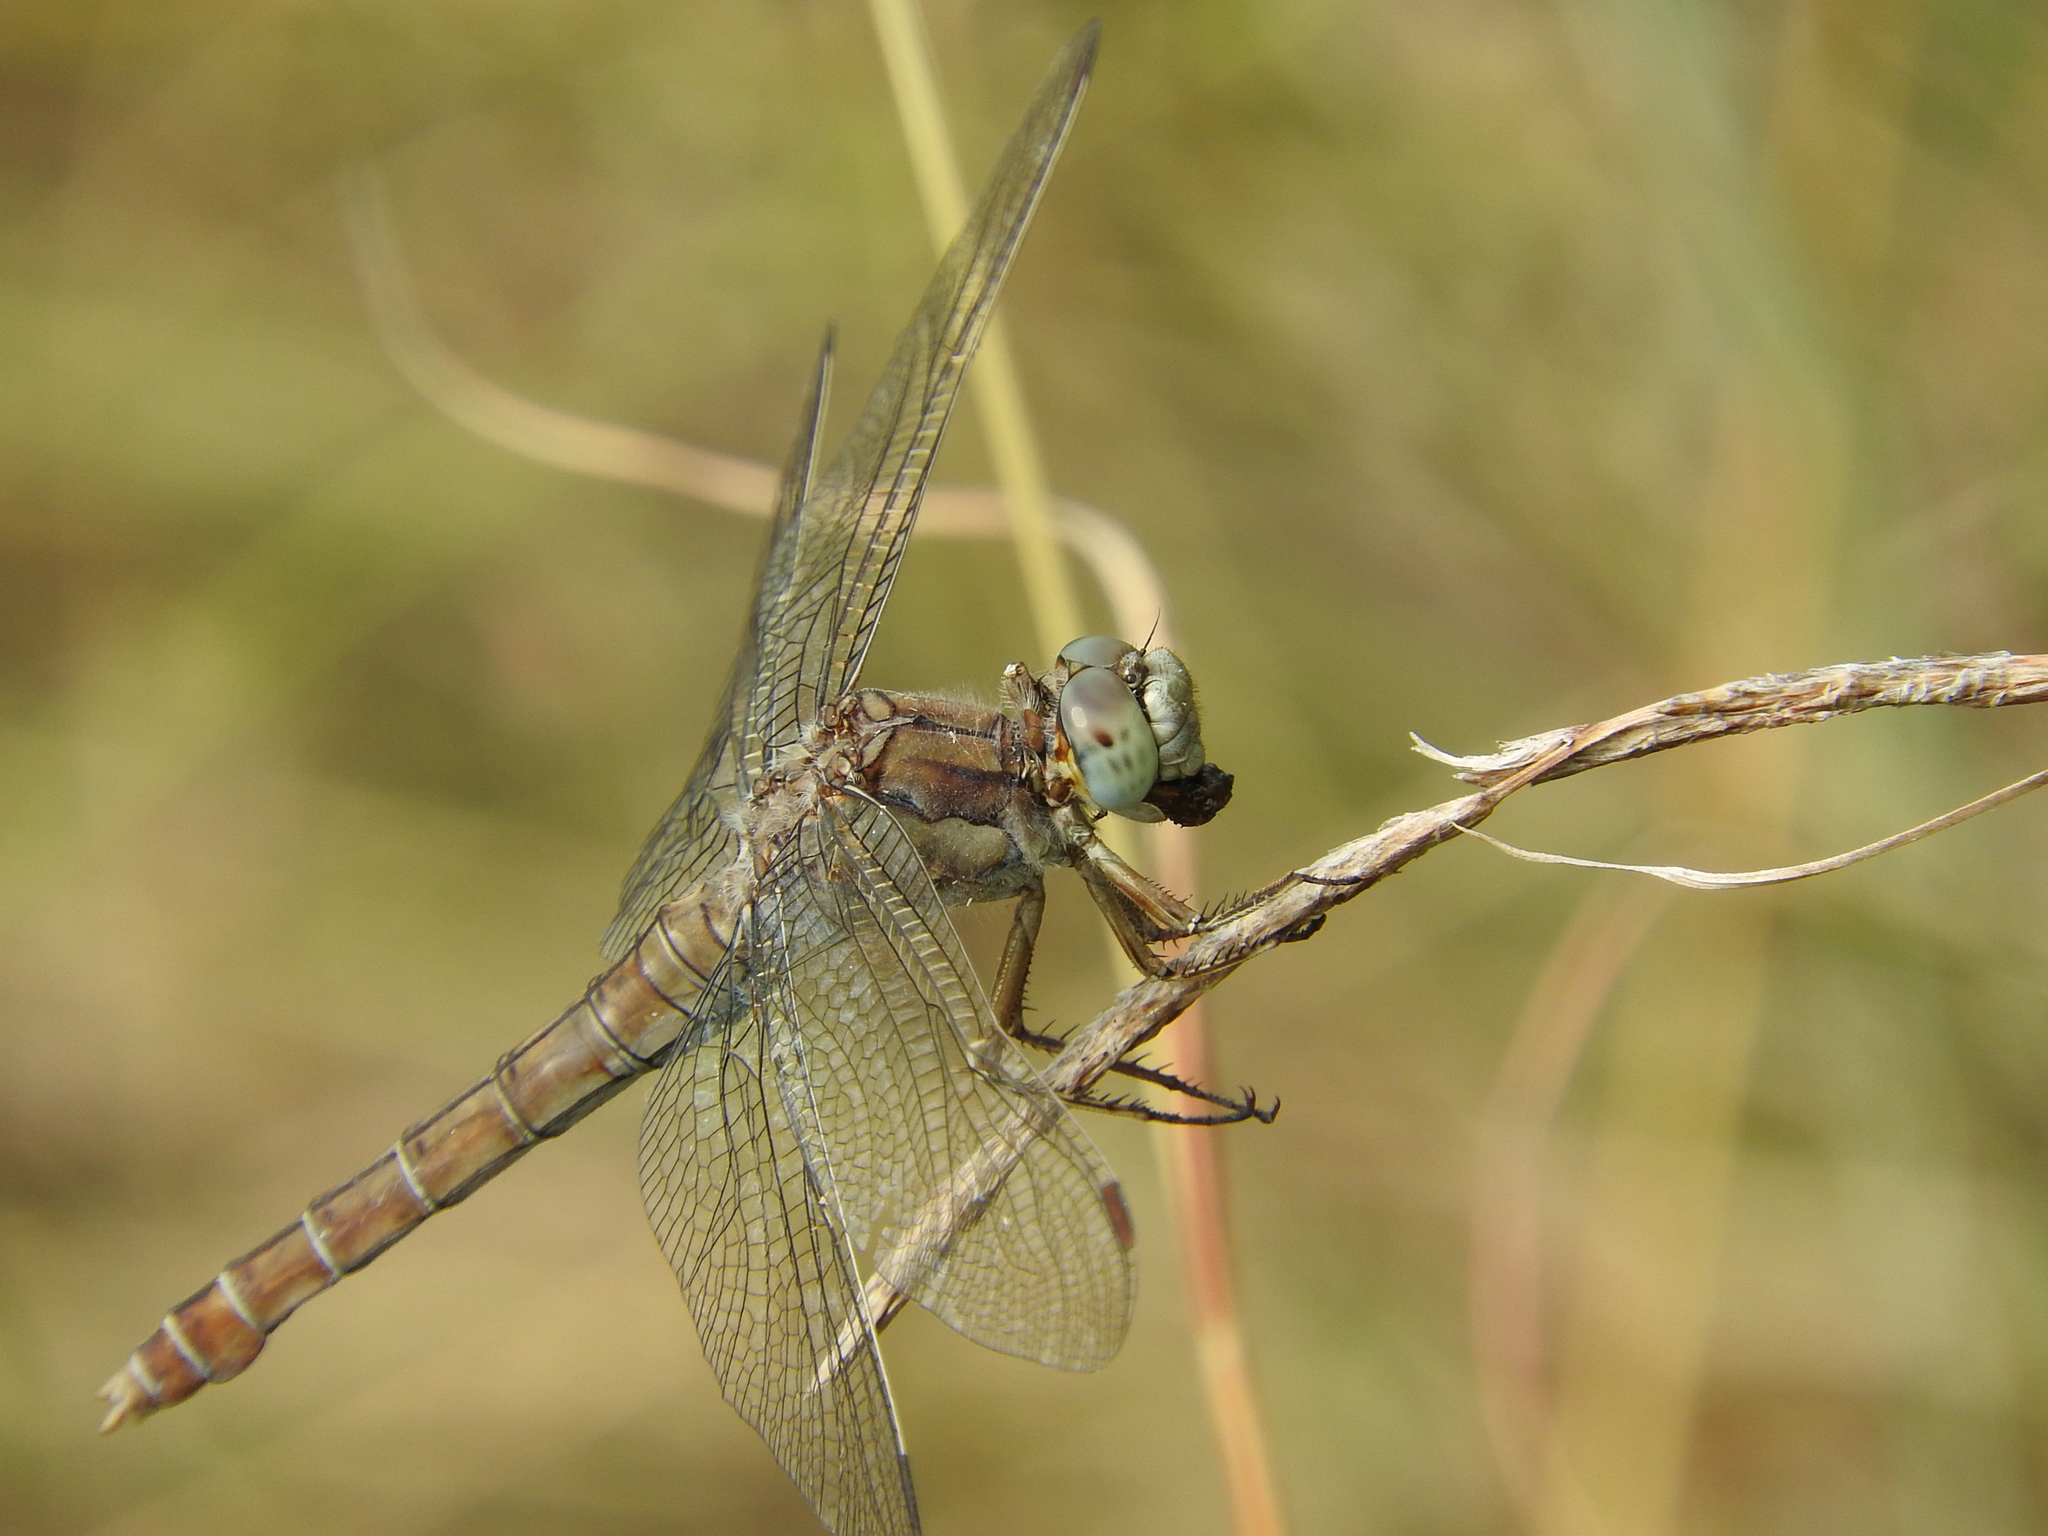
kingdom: Animalia
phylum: Arthropoda
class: Insecta
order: Odonata
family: Libellulidae
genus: Orthetrum
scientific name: Orthetrum brunneum
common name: Southern skimmer
